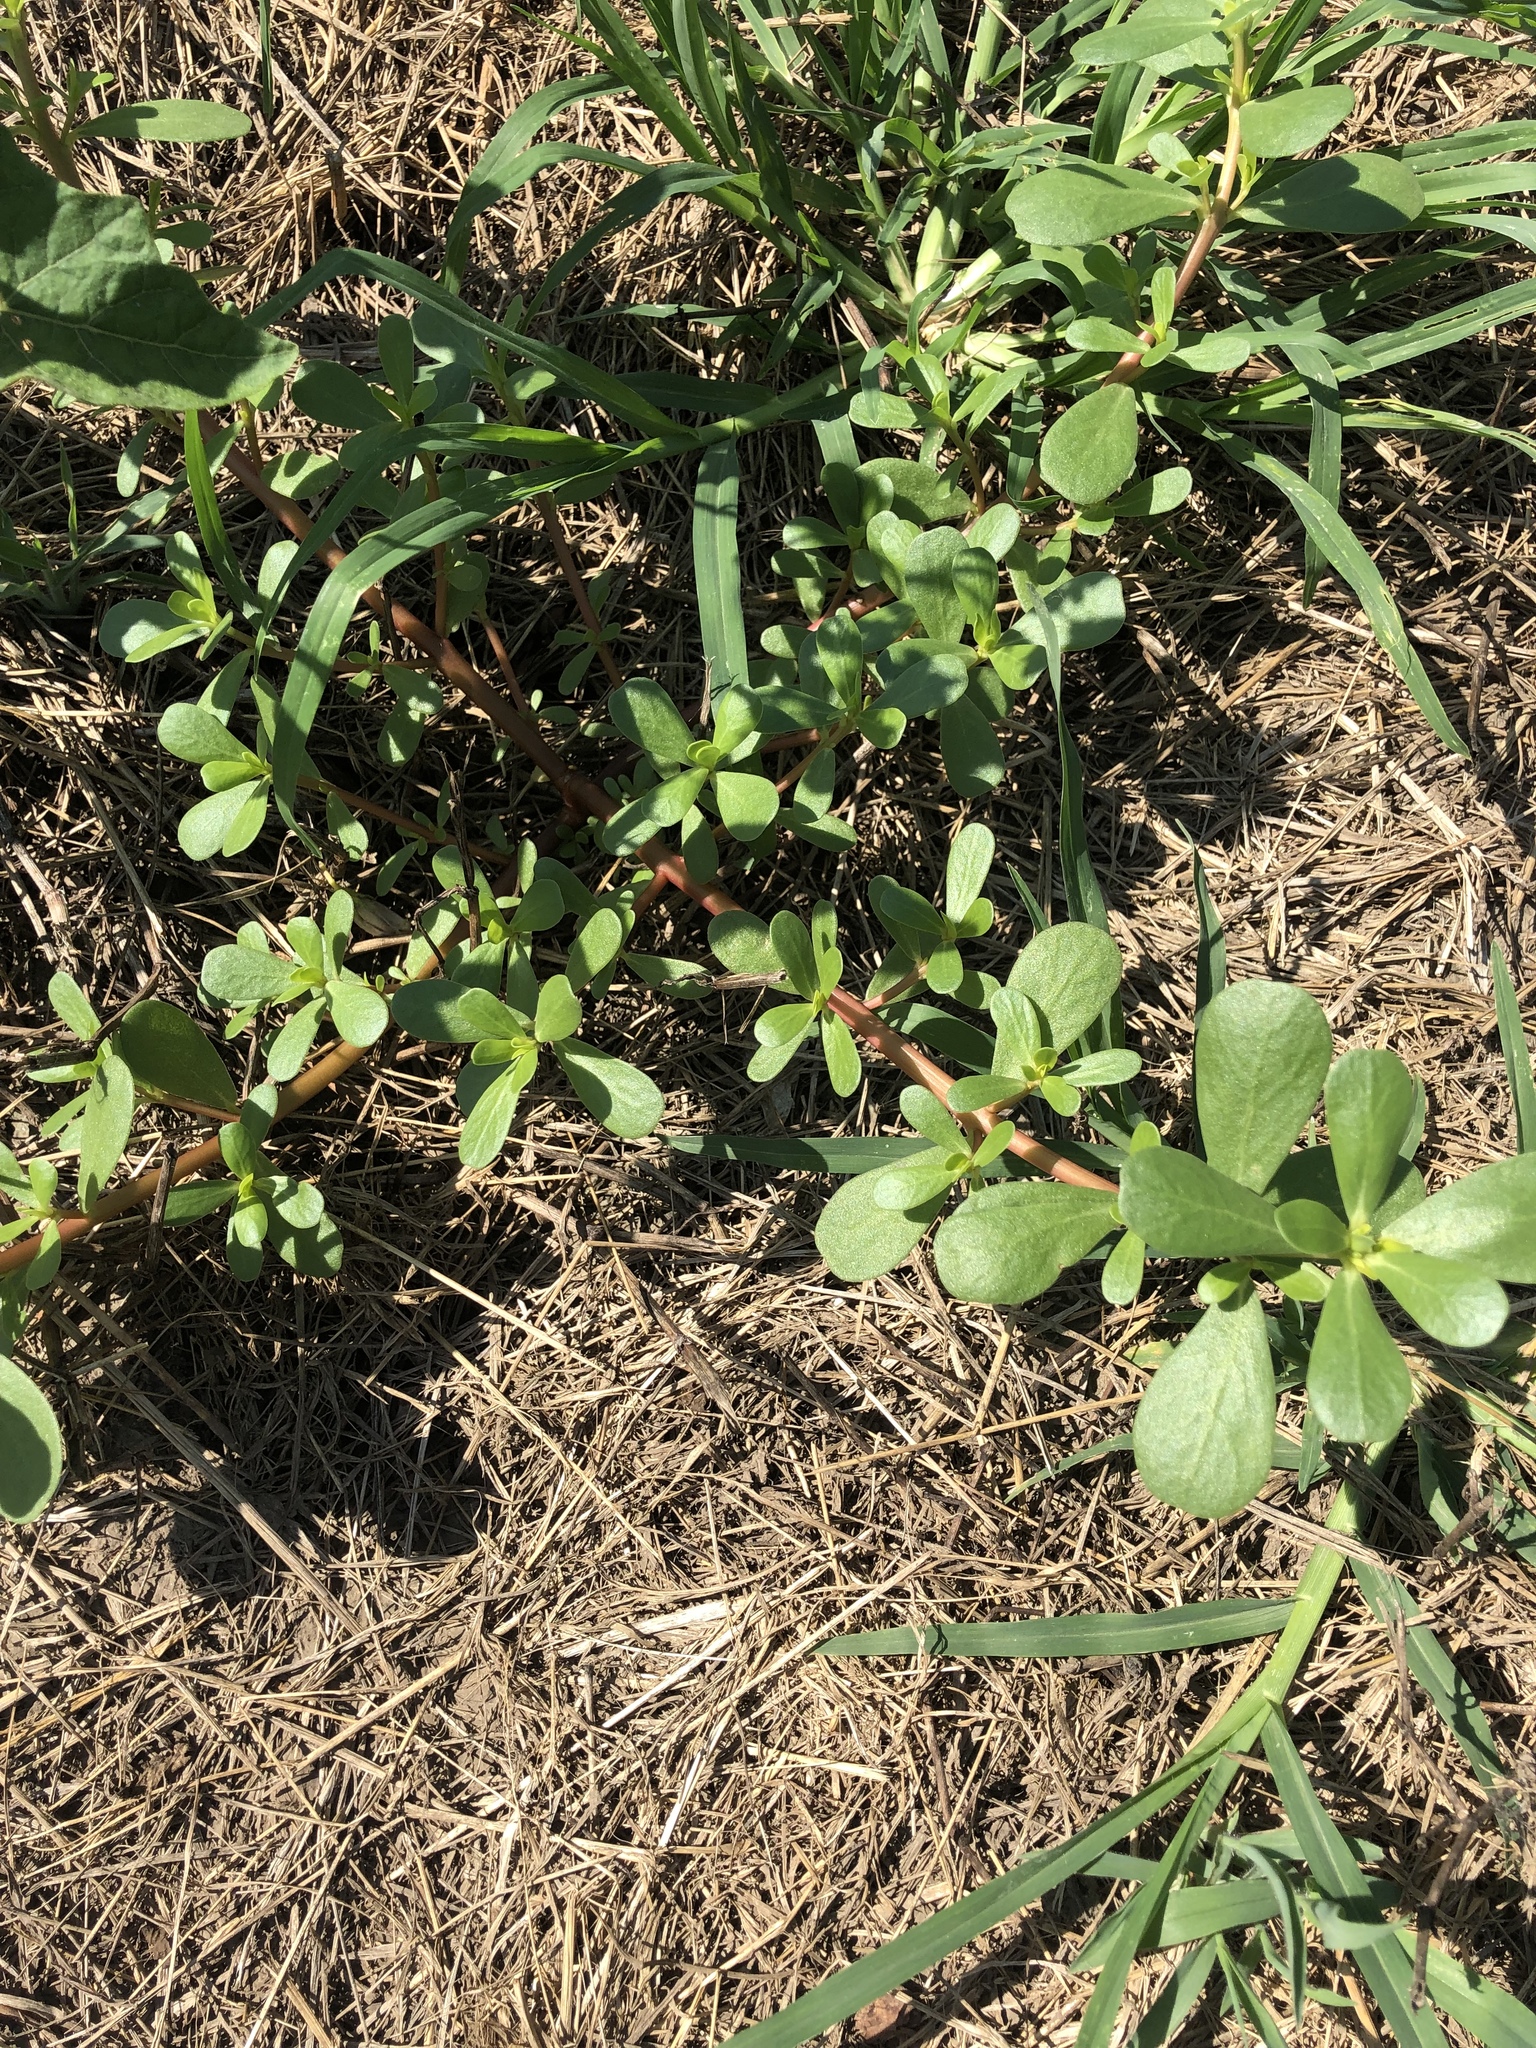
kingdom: Plantae
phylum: Tracheophyta
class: Magnoliopsida
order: Caryophyllales
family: Portulacaceae
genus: Portulaca
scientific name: Portulaca oleracea
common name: Common purslane
